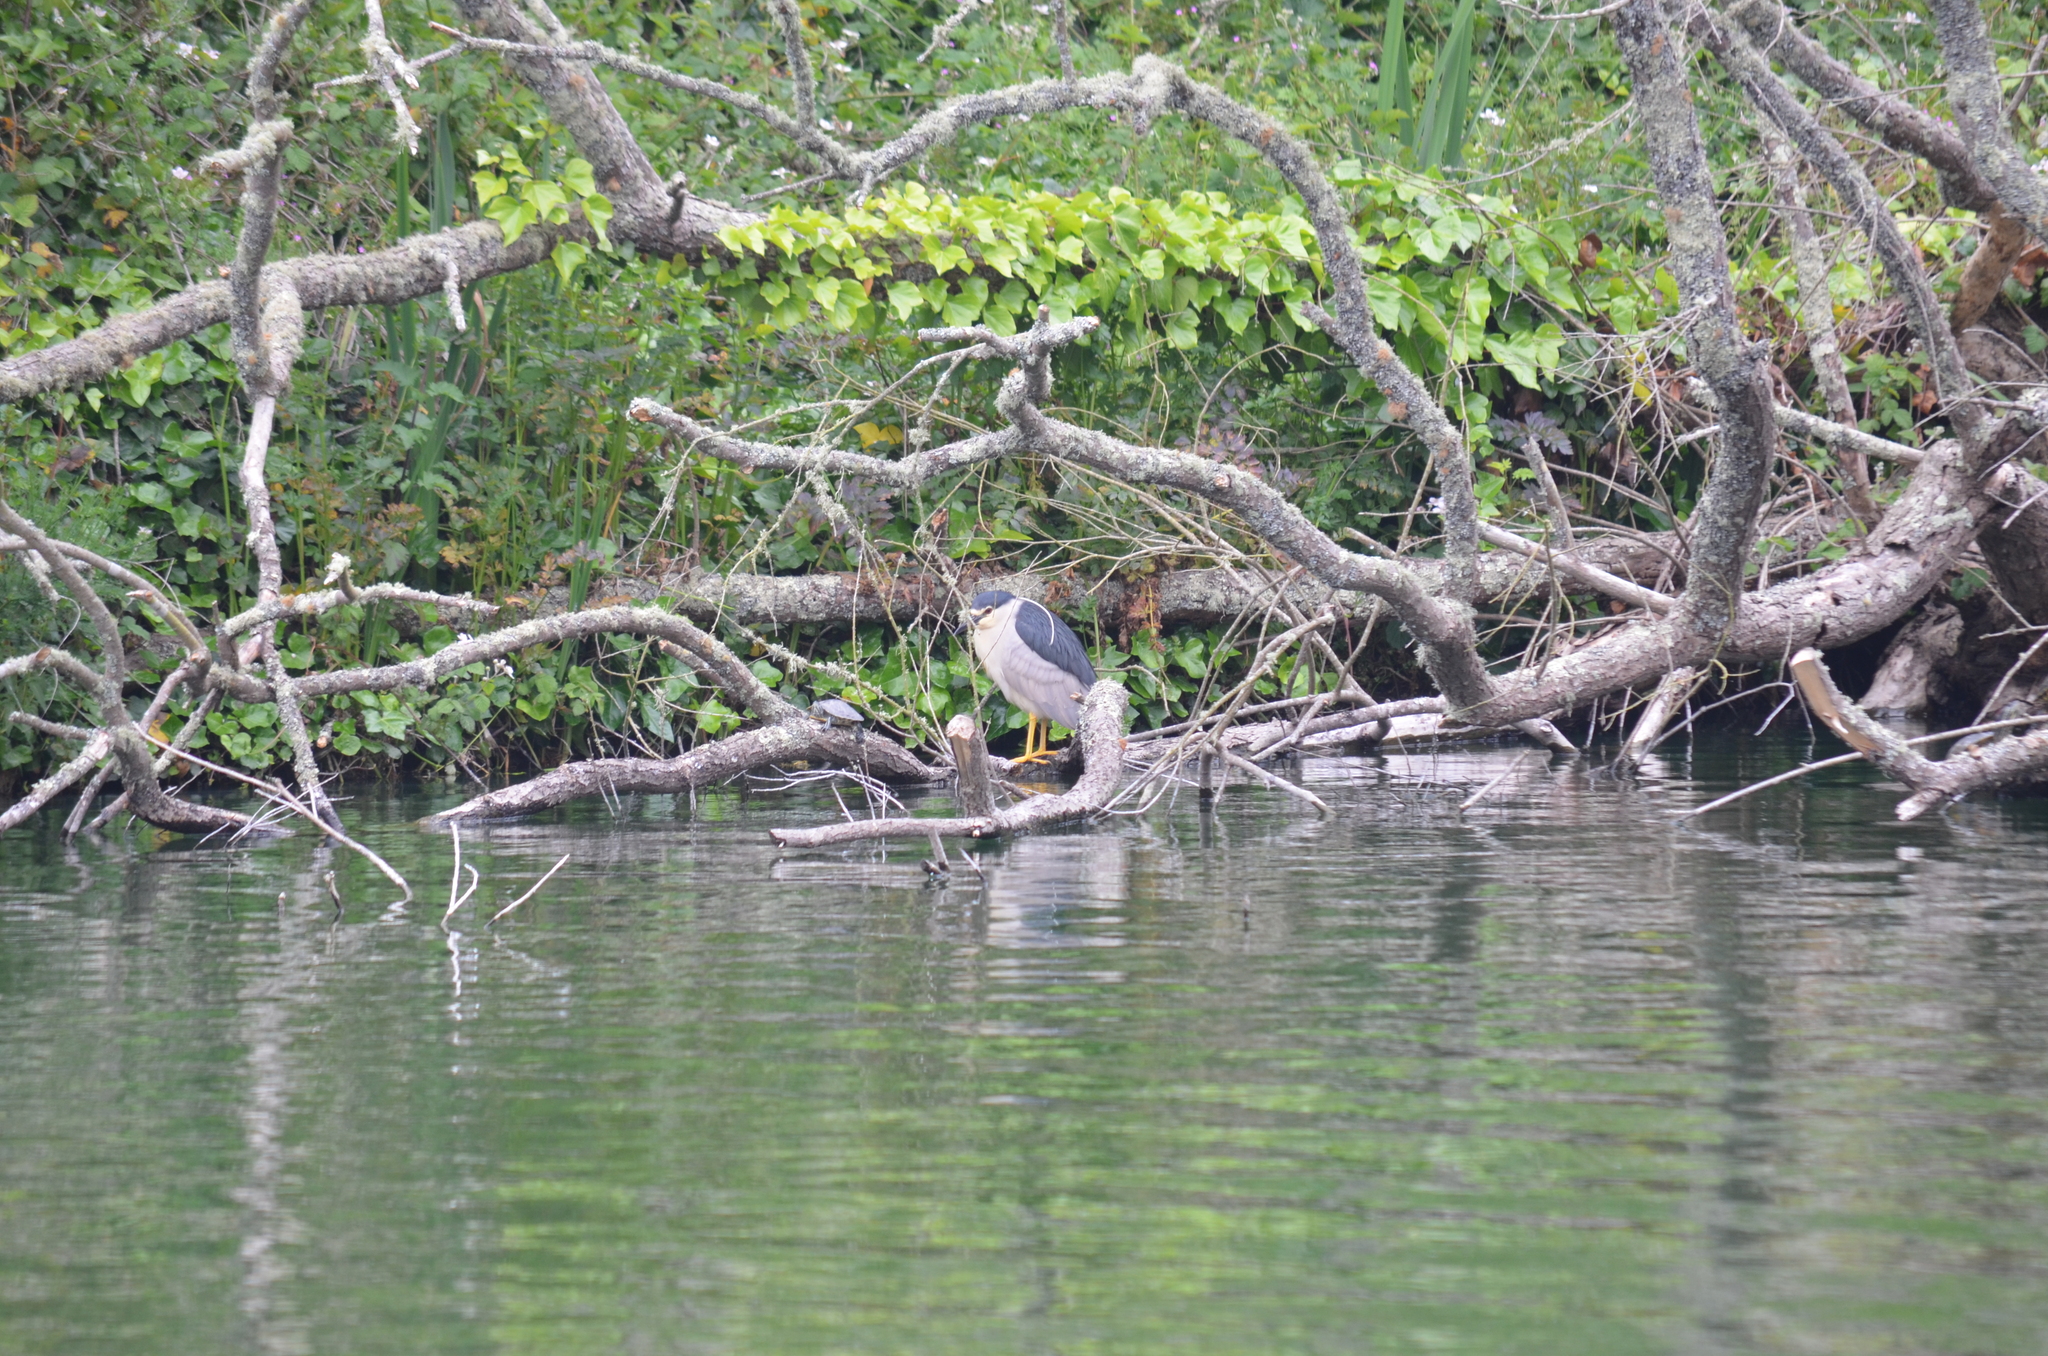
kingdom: Animalia
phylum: Chordata
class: Aves
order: Pelecaniformes
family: Ardeidae
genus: Nycticorax
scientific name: Nycticorax nycticorax
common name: Black-crowned night heron
